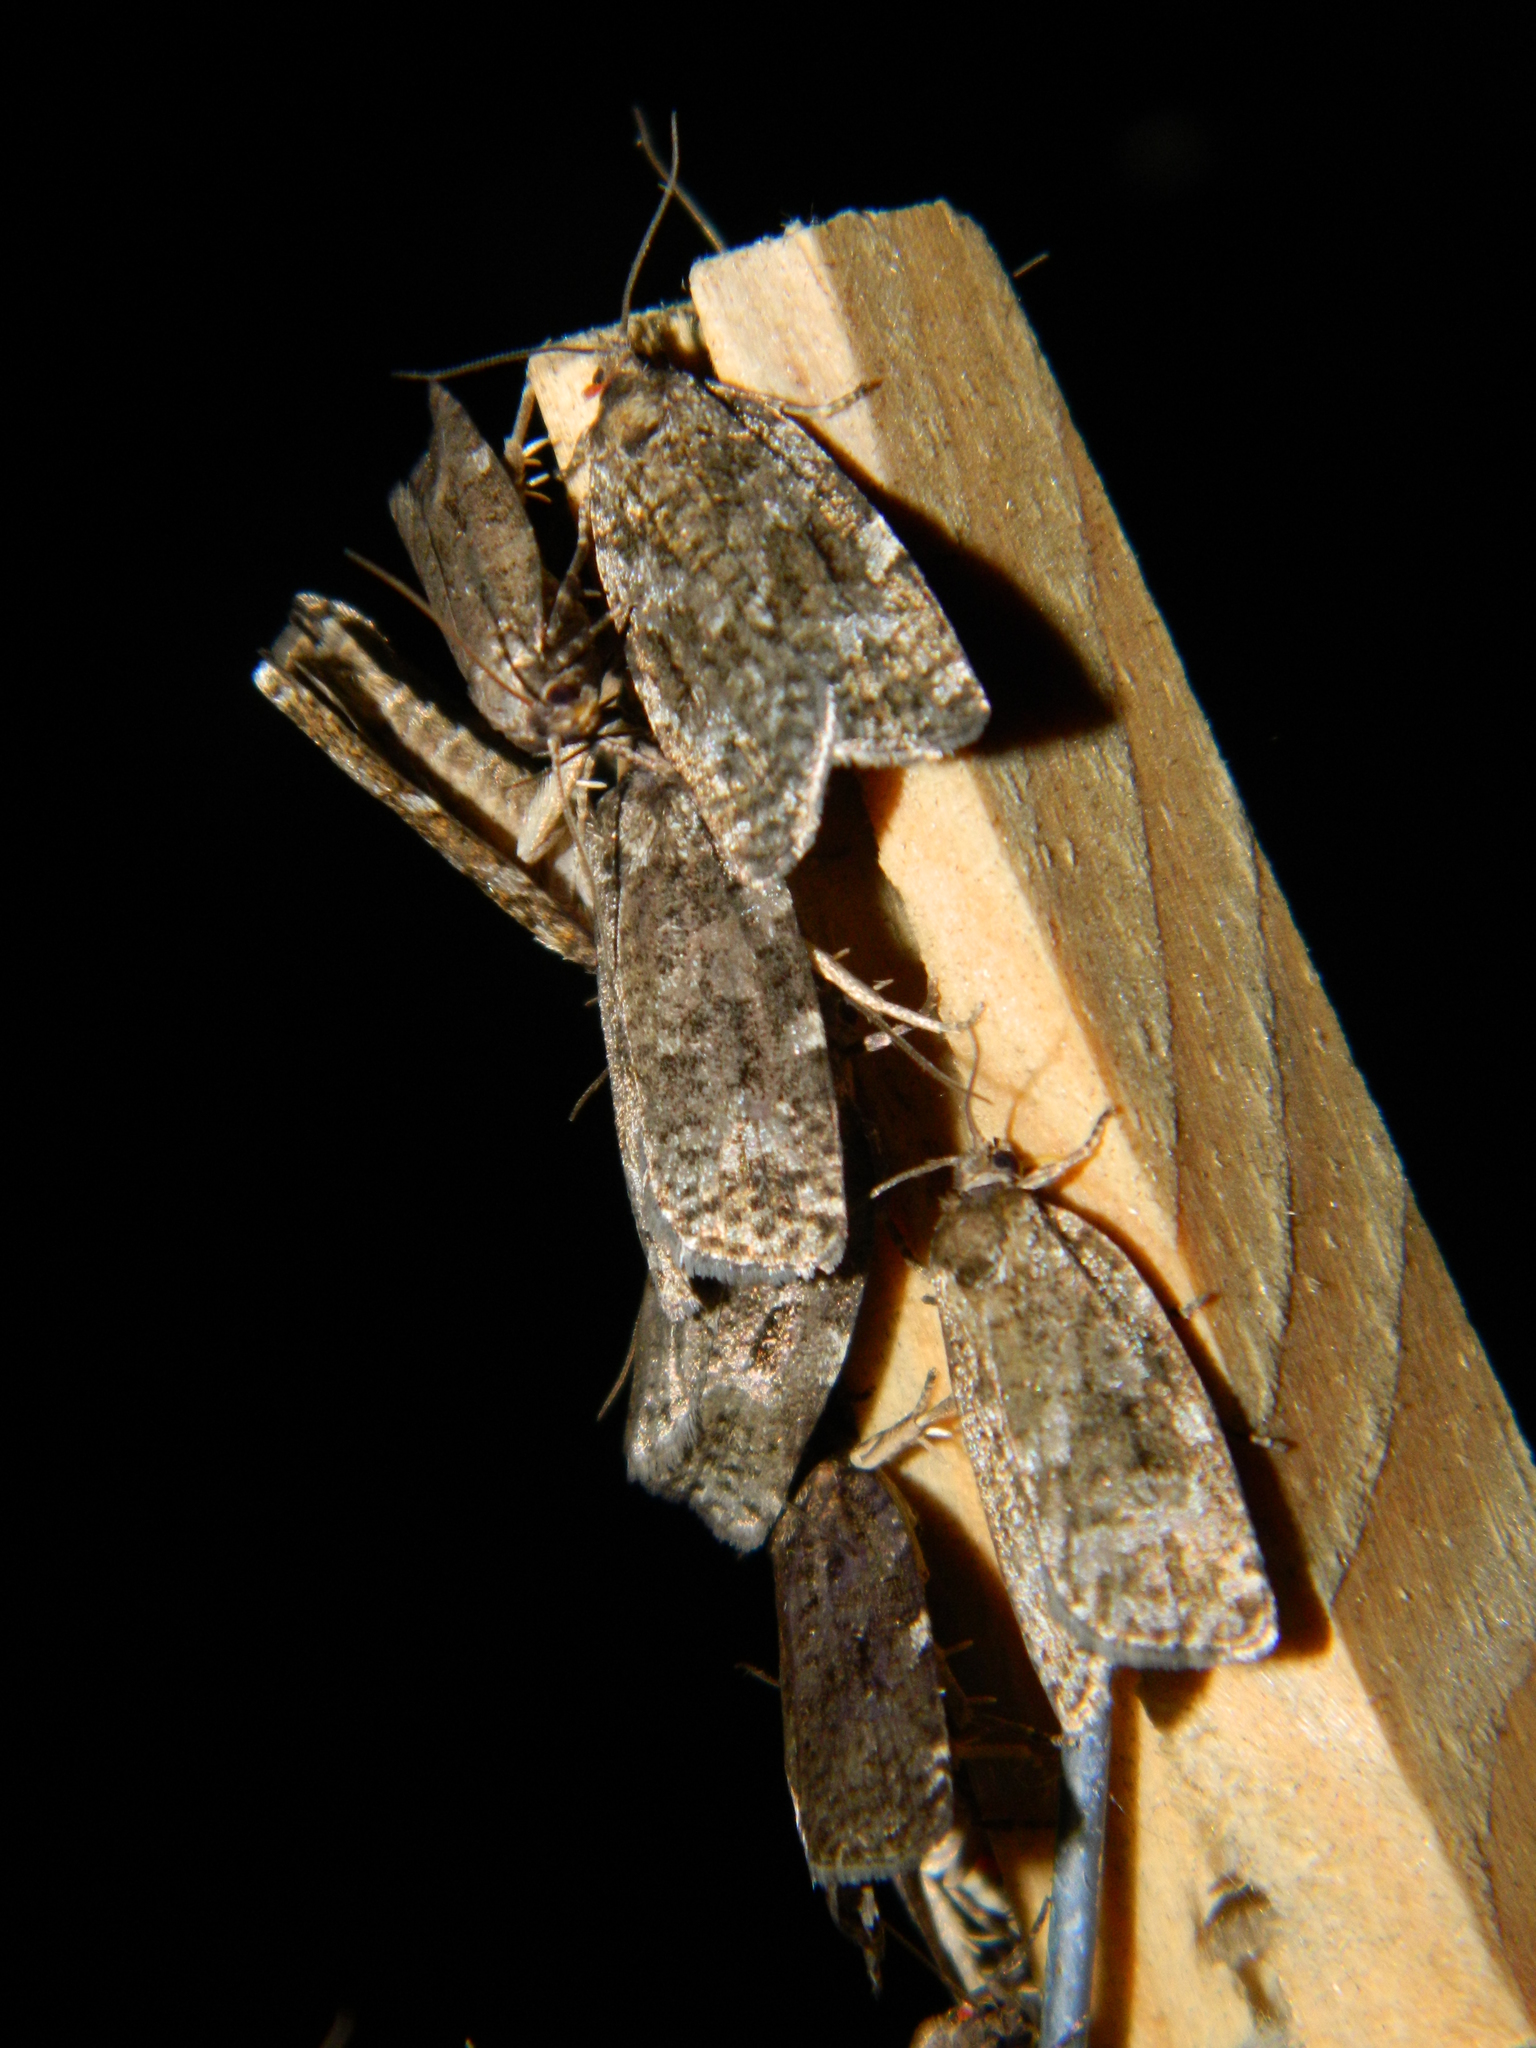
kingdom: Animalia
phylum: Arthropoda
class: Insecta
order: Lepidoptera
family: Tortricidae
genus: Choristoneura
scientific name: Choristoneura fumiferana
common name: Spruce budworm
